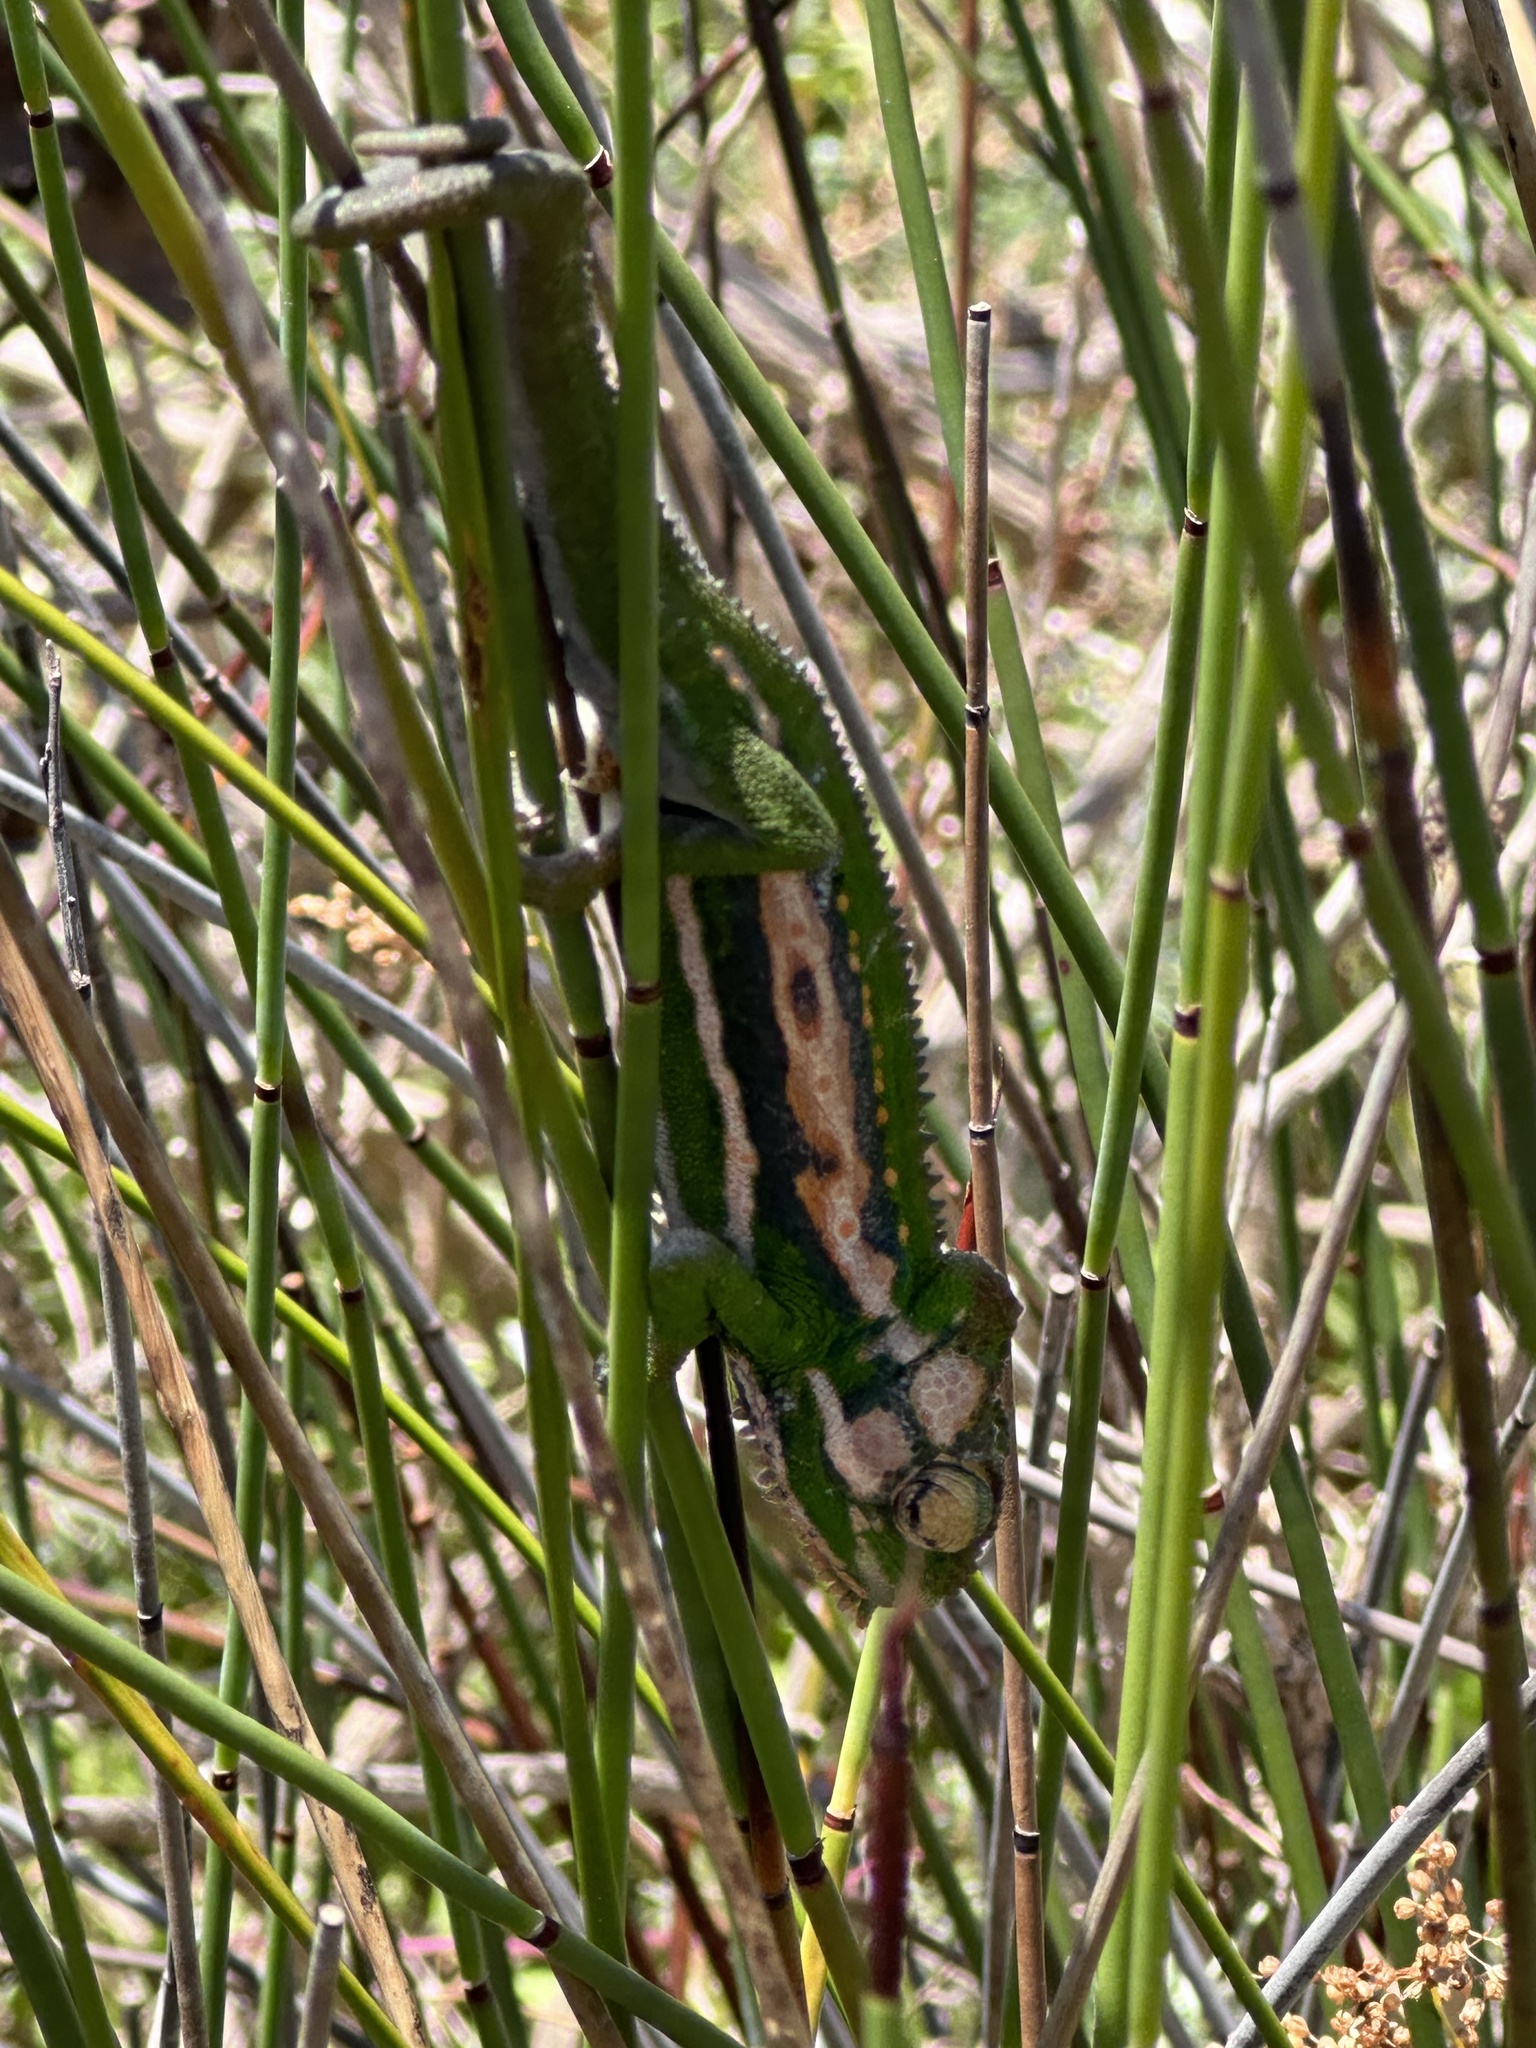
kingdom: Animalia
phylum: Chordata
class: Squamata
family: Chamaeleonidae
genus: Bradypodion
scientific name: Bradypodion pumilum
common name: Cape dwarf chameleon
